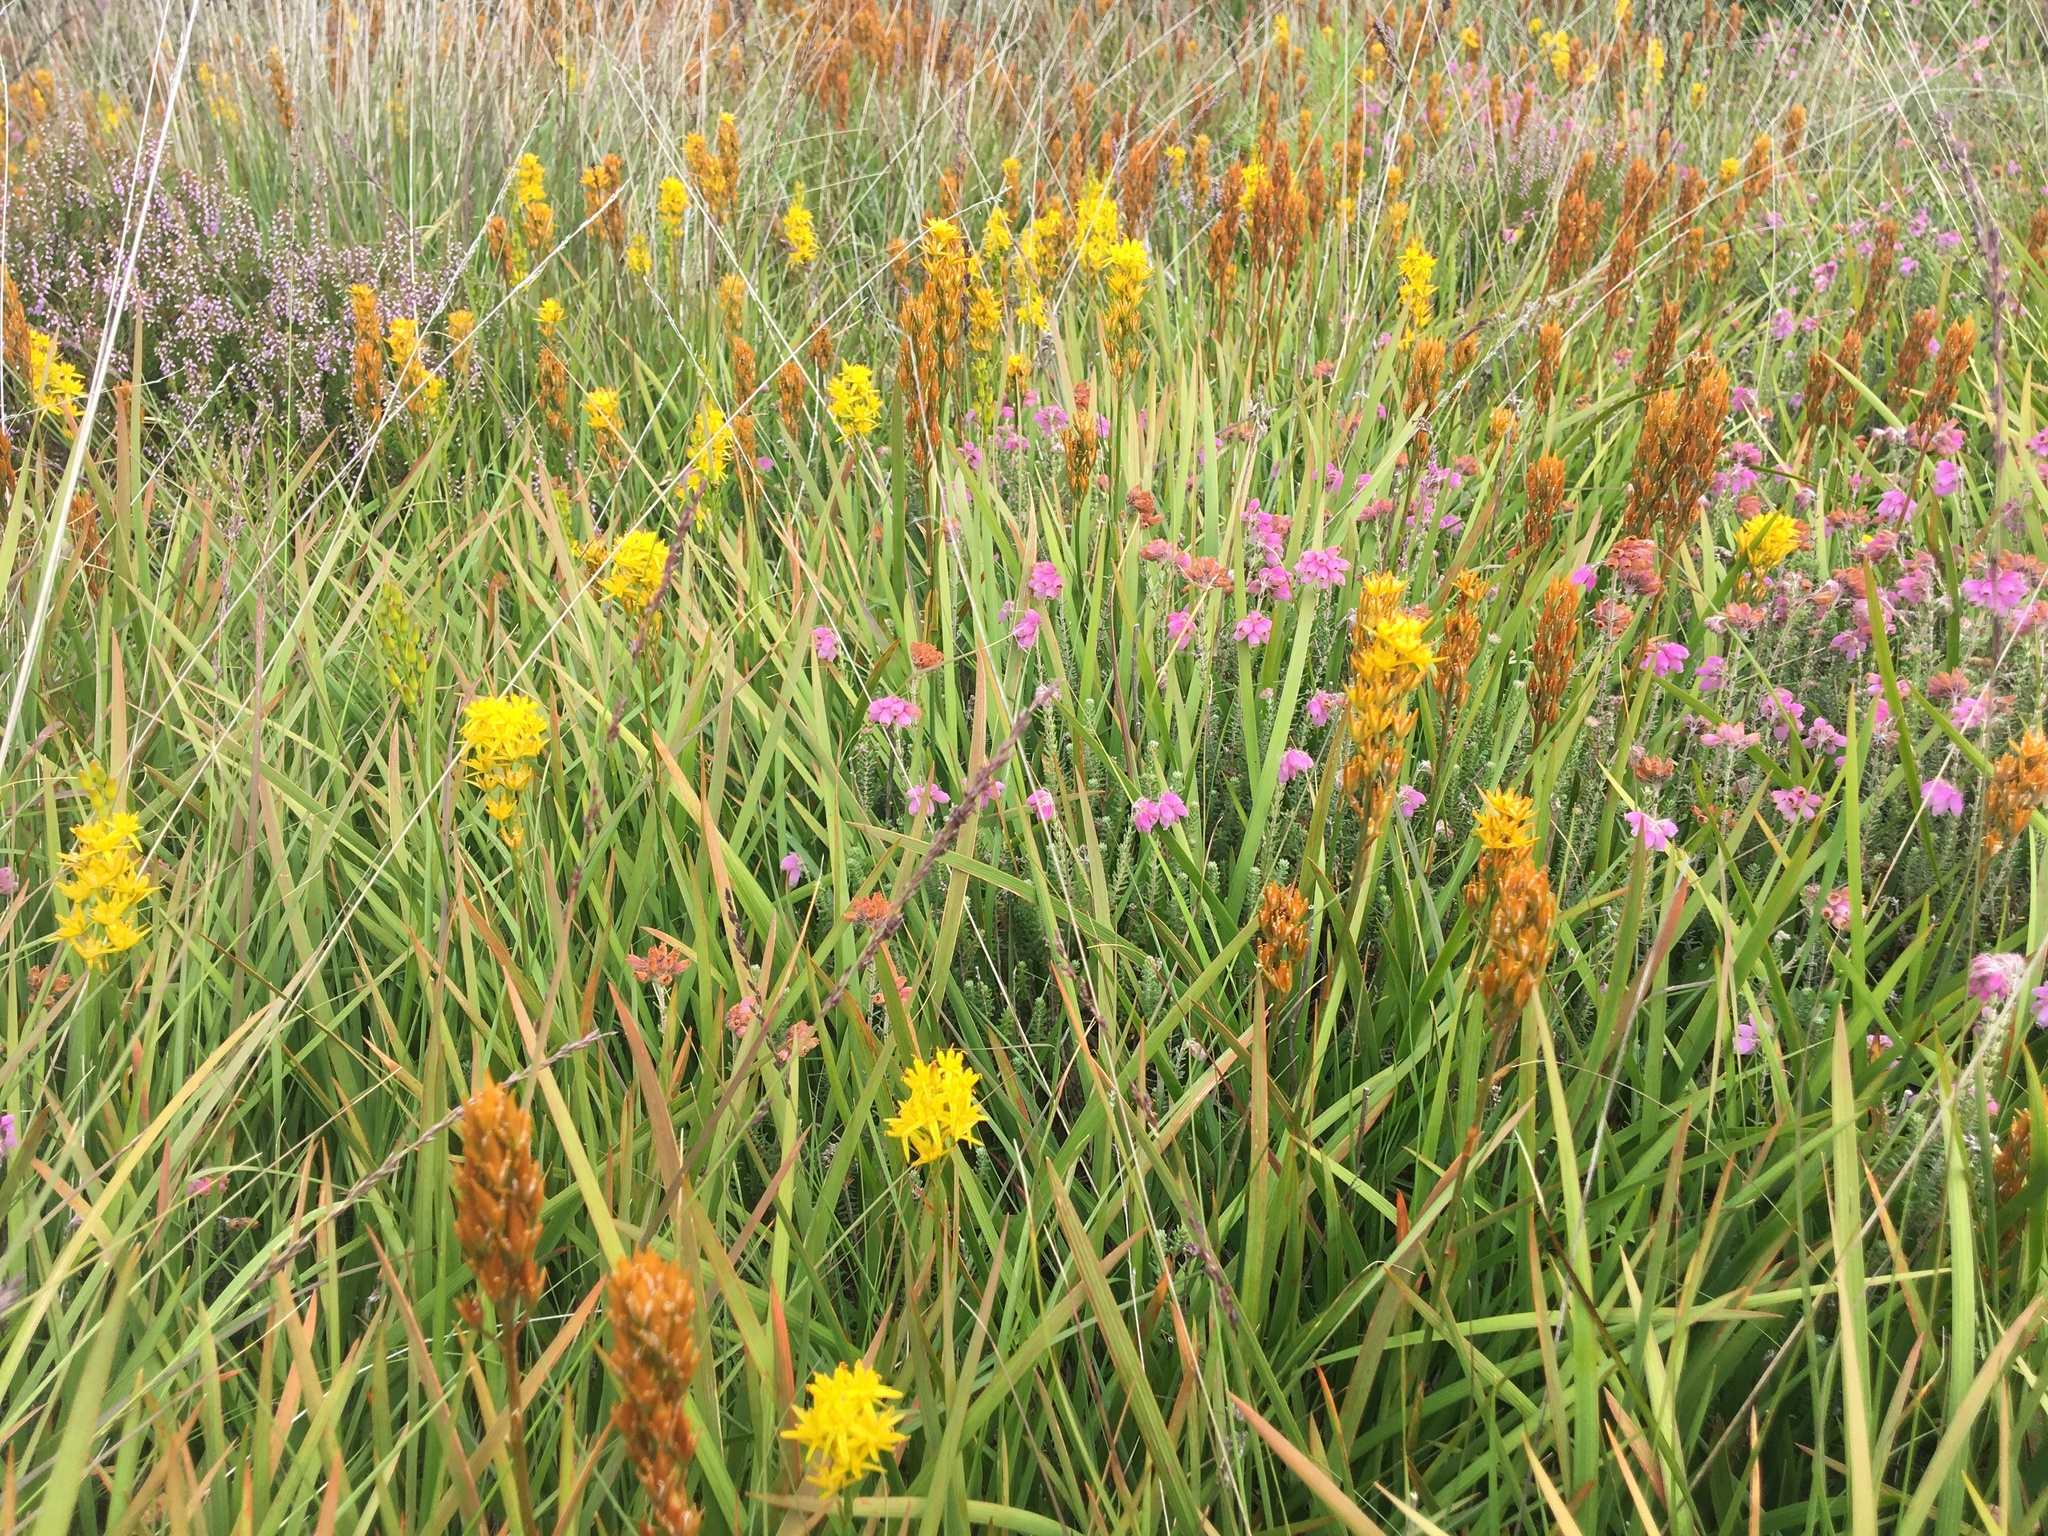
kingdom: Plantae
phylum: Tracheophyta
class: Liliopsida
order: Dioscoreales
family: Nartheciaceae
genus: Narthecium
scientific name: Narthecium ossifragum
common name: Bog asphodel
